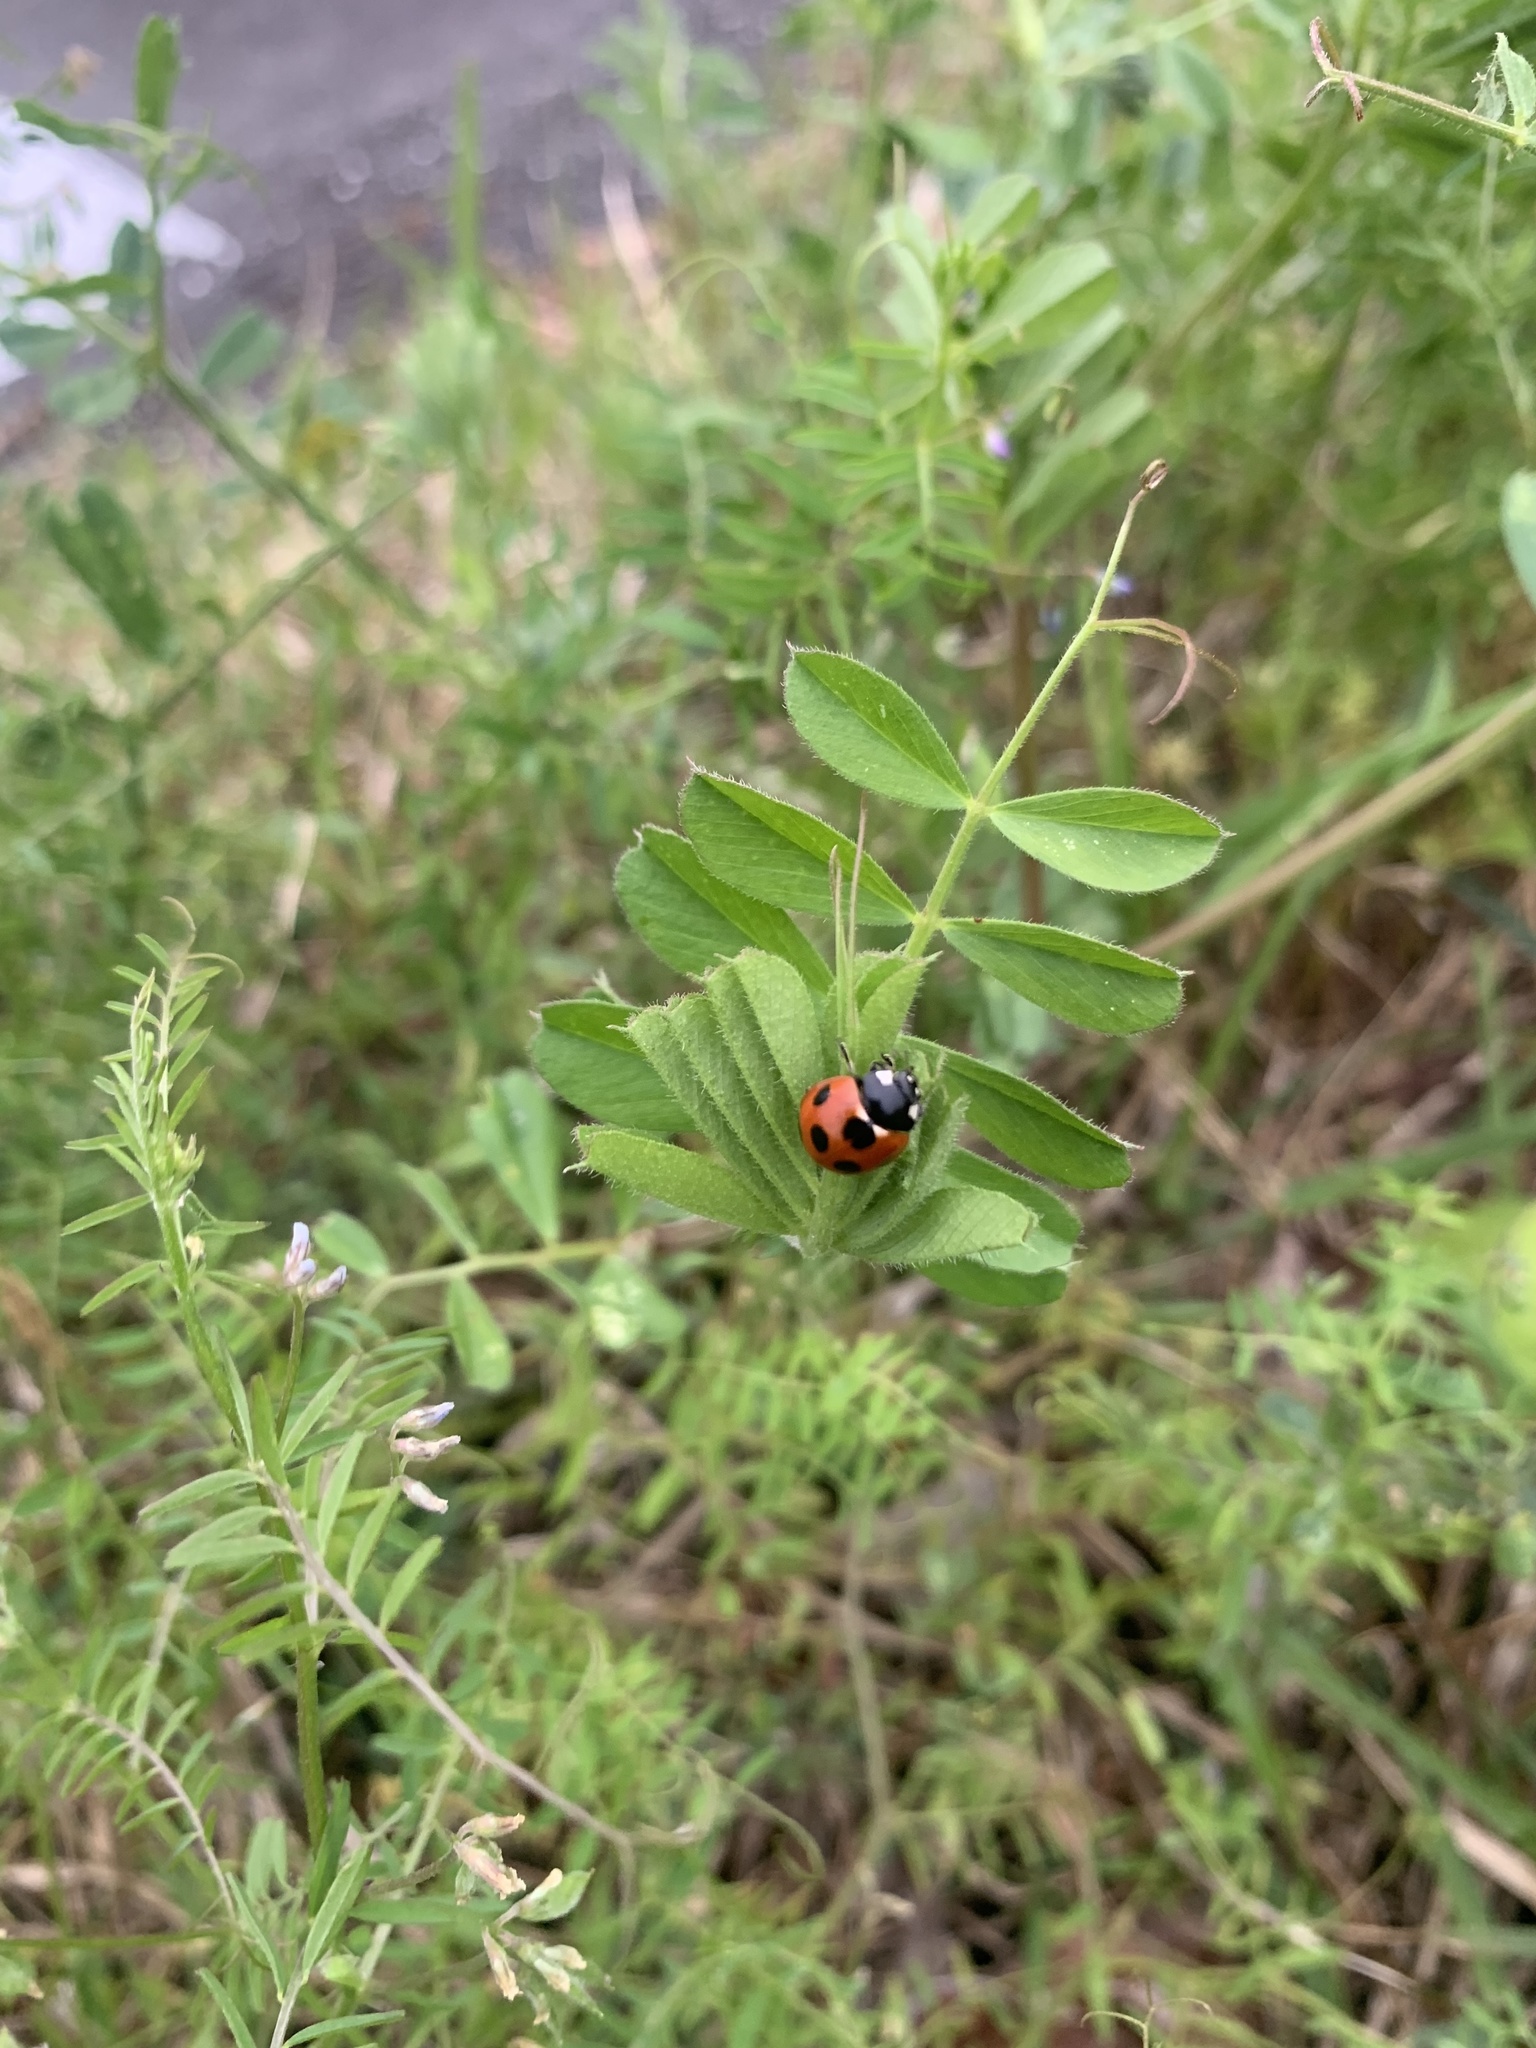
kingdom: Animalia
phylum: Arthropoda
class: Insecta
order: Coleoptera
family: Coccinellidae
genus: Coccinella
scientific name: Coccinella septempunctata
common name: Sevenspotted lady beetle
